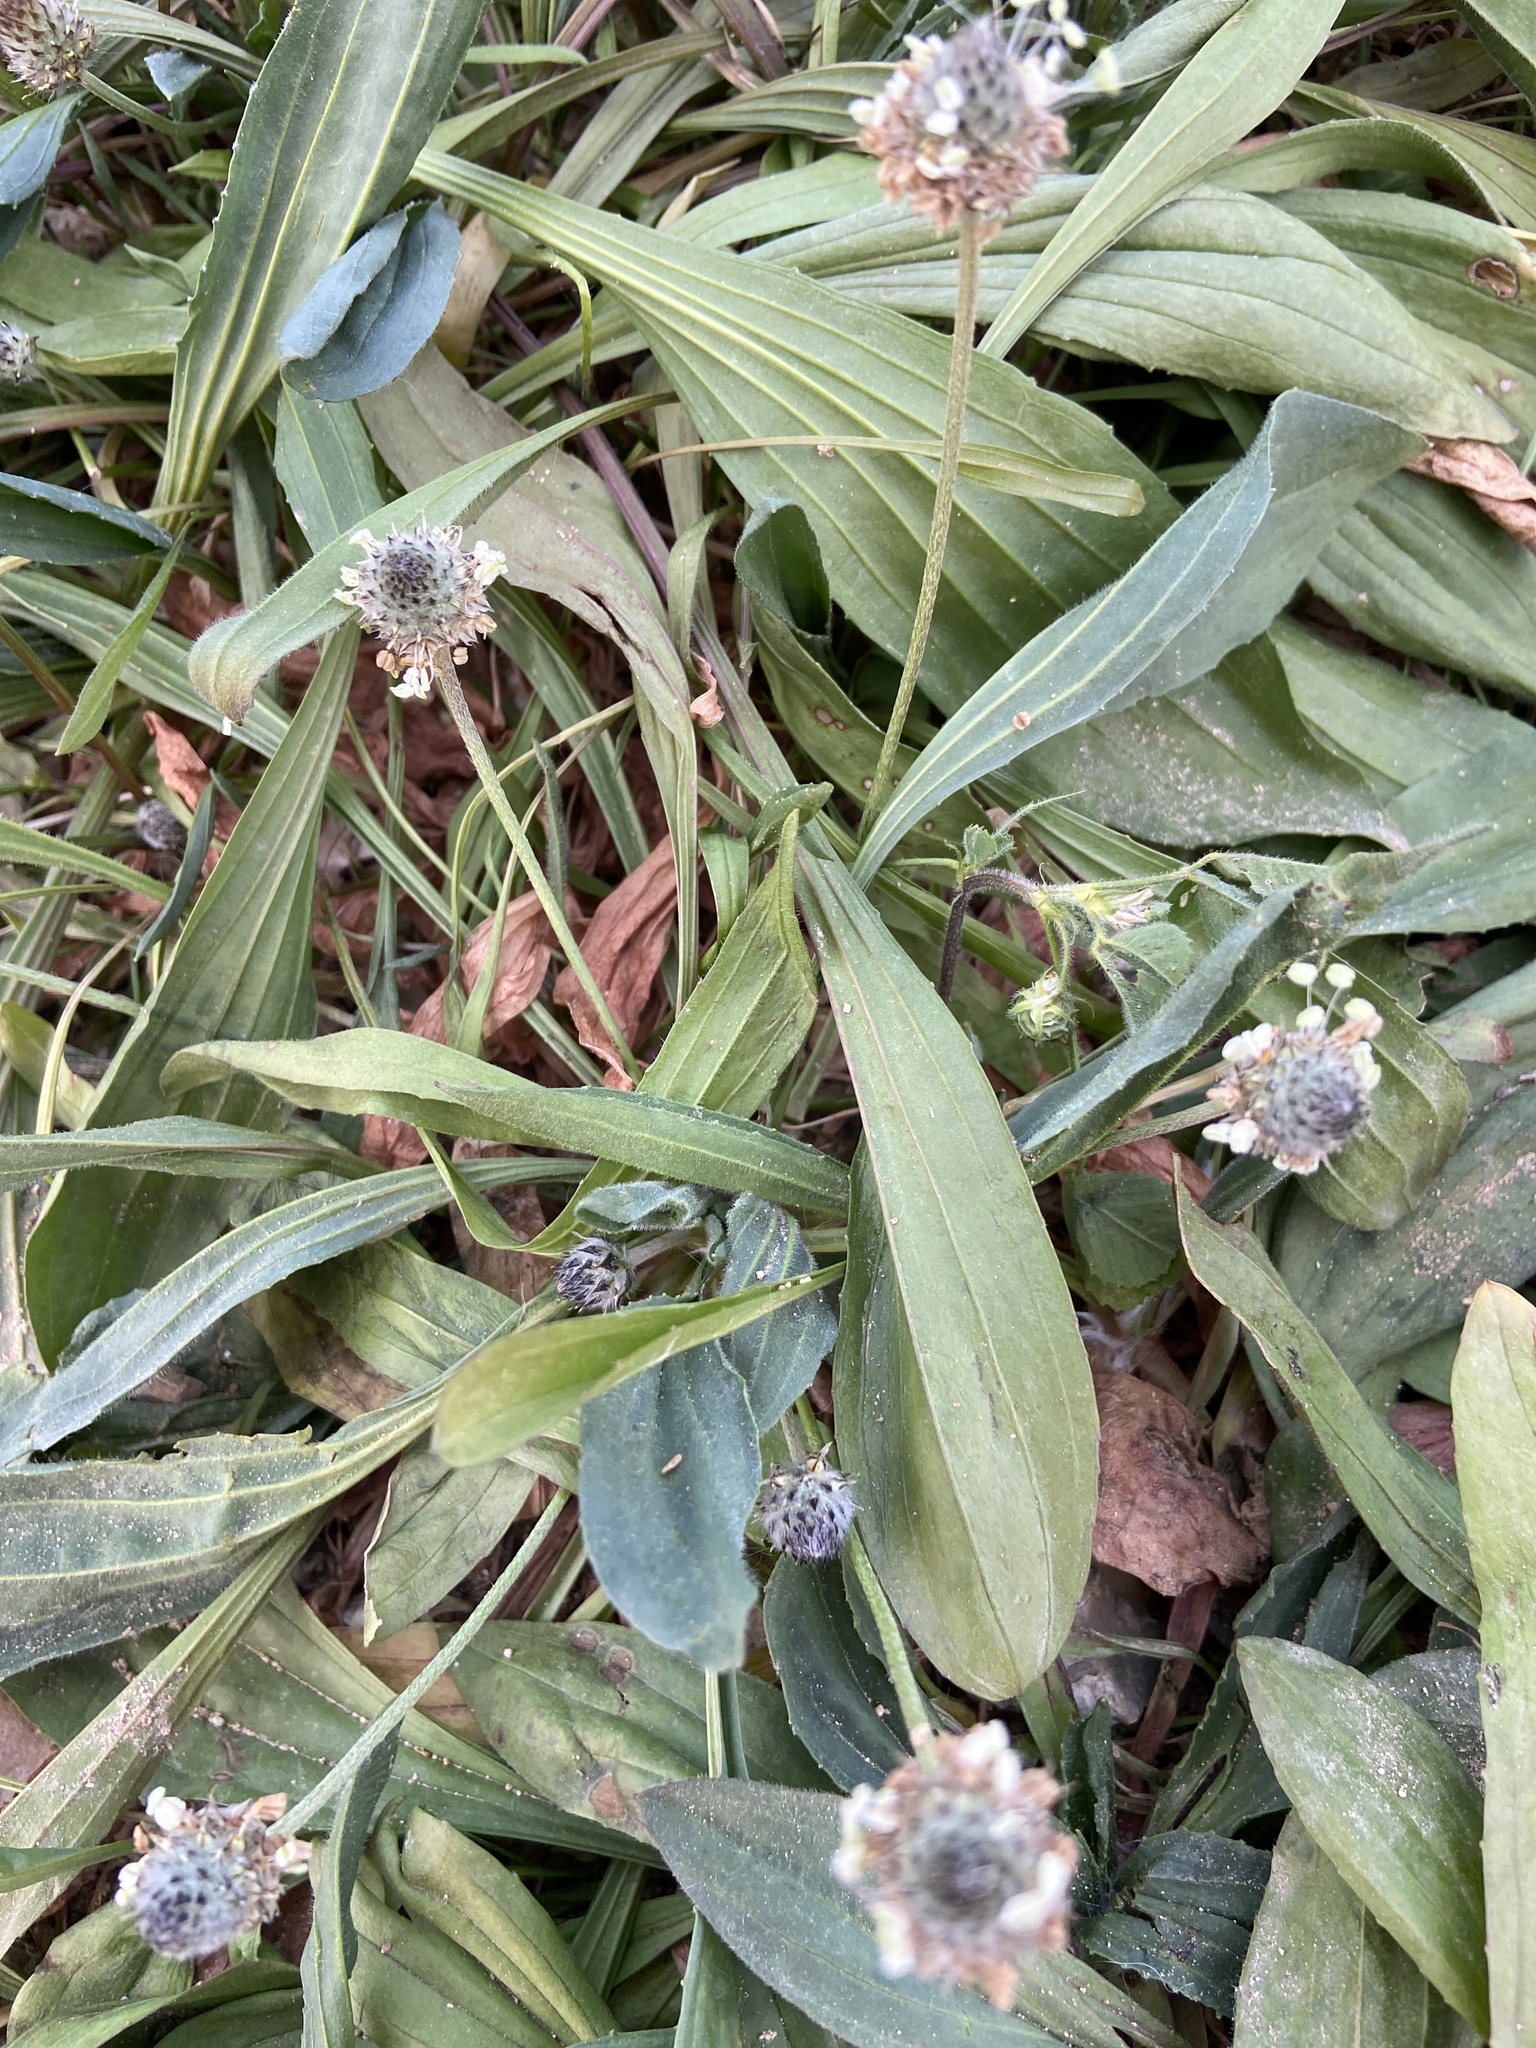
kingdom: Plantae
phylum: Tracheophyta
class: Magnoliopsida
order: Lamiales
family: Plantaginaceae
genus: Plantago
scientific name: Plantago lagopus
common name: Hare-foot plantain
